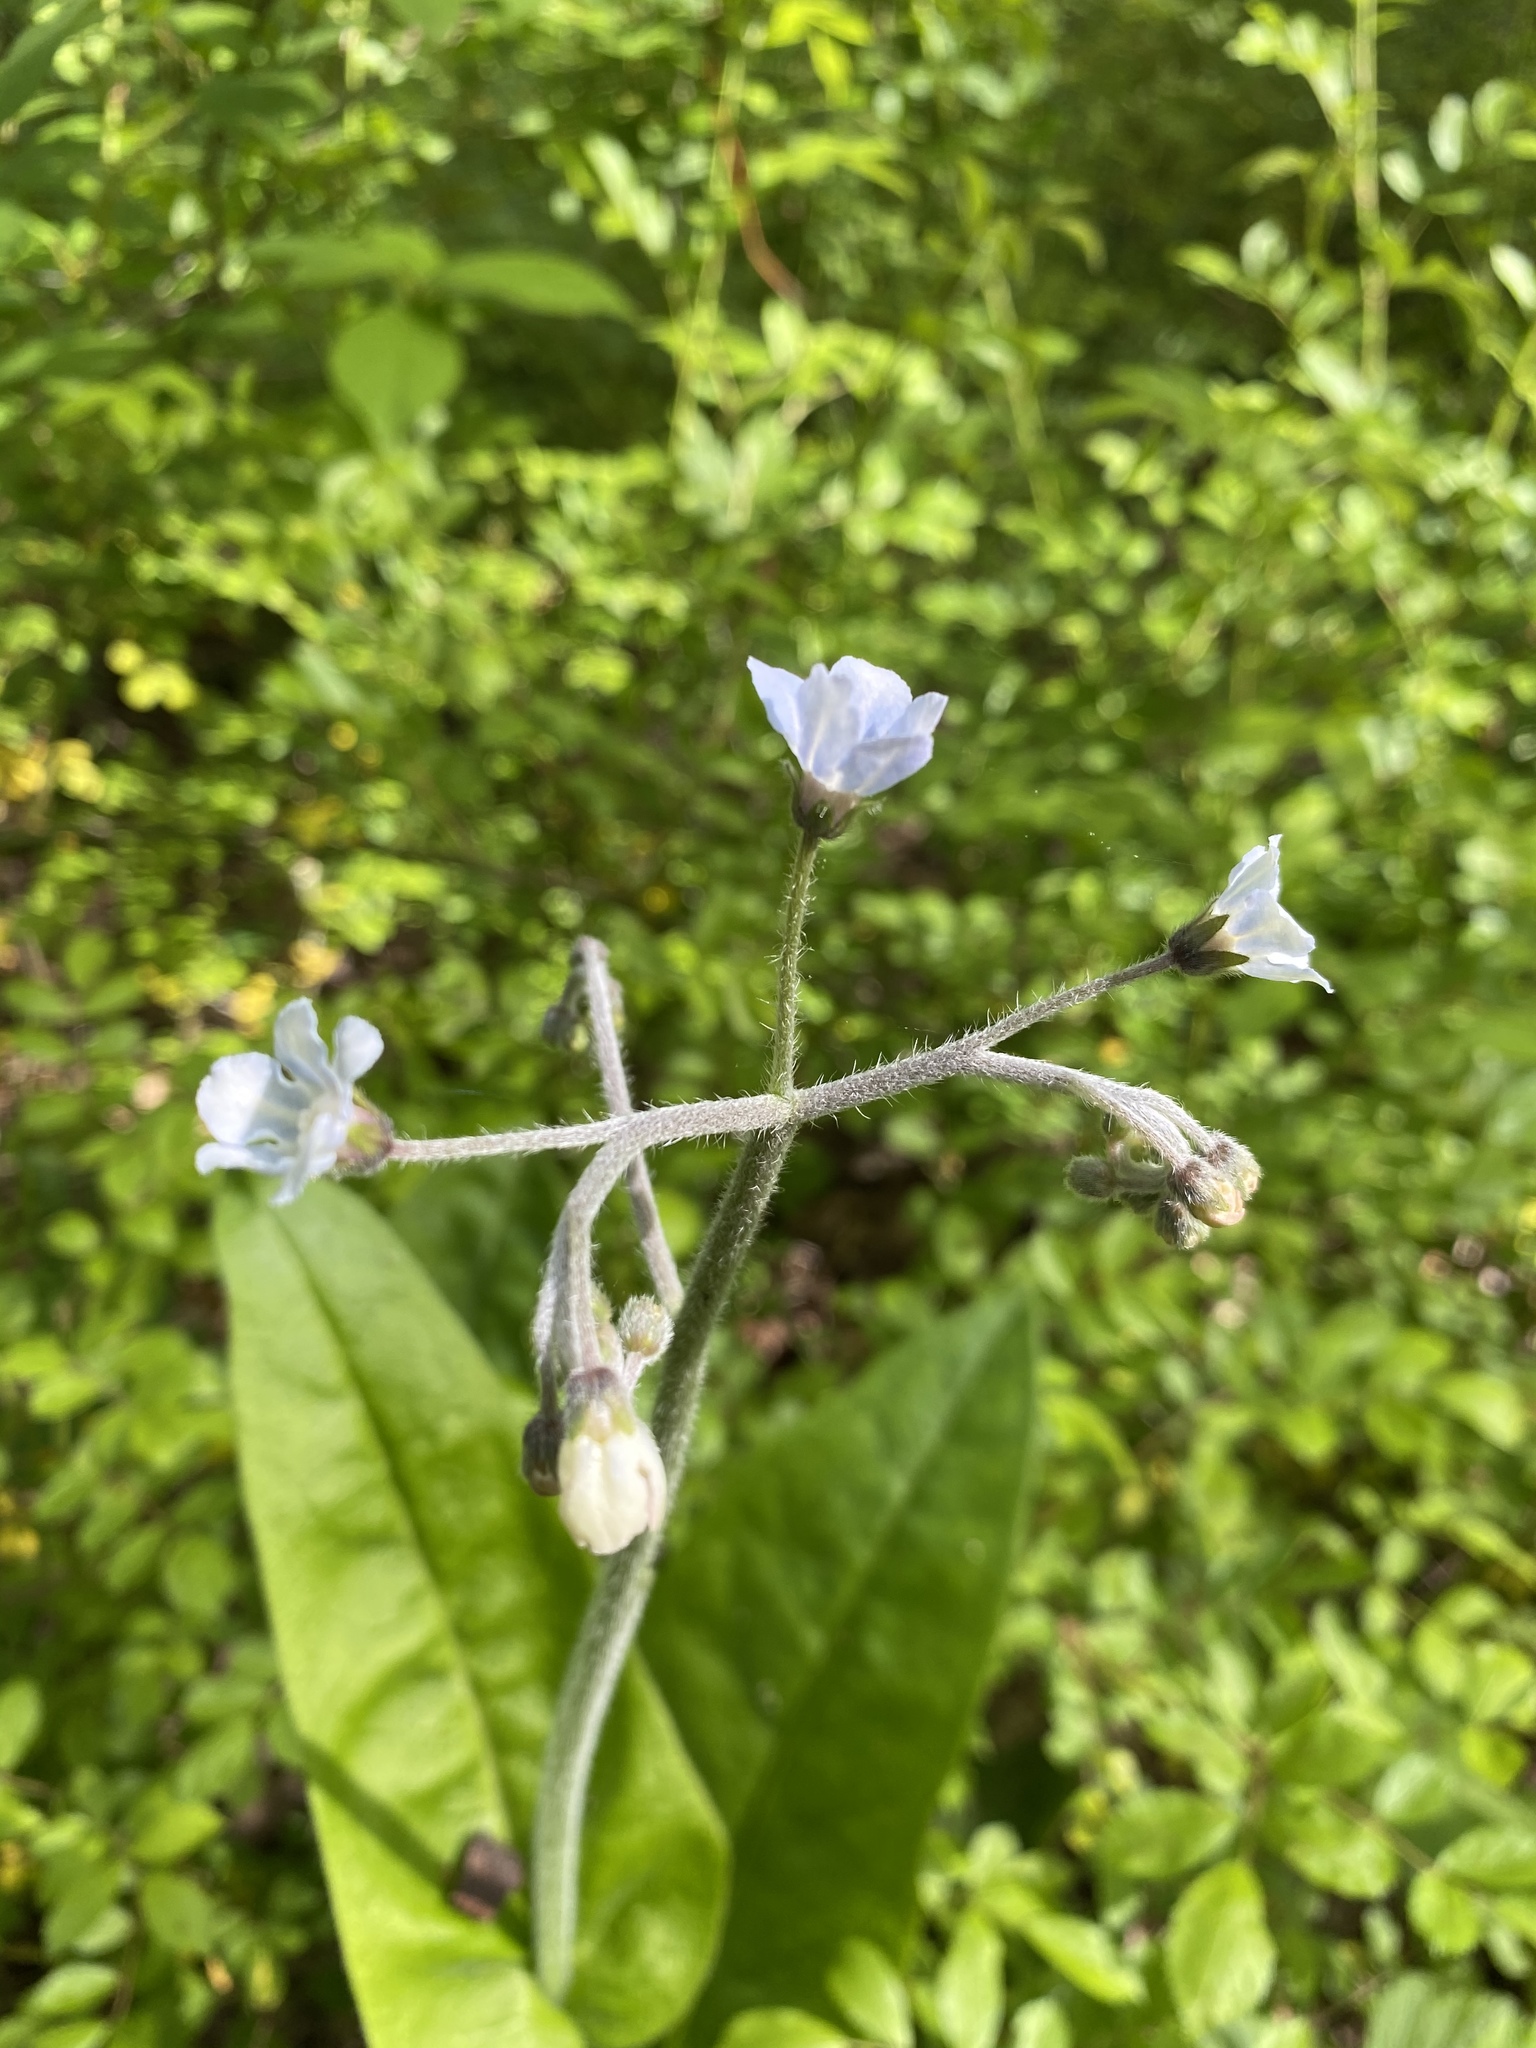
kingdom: Plantae
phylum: Tracheophyta
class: Magnoliopsida
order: Boraginales
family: Boraginaceae
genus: Andersonglossum
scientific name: Andersonglossum virginianum
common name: Wild comfrey
